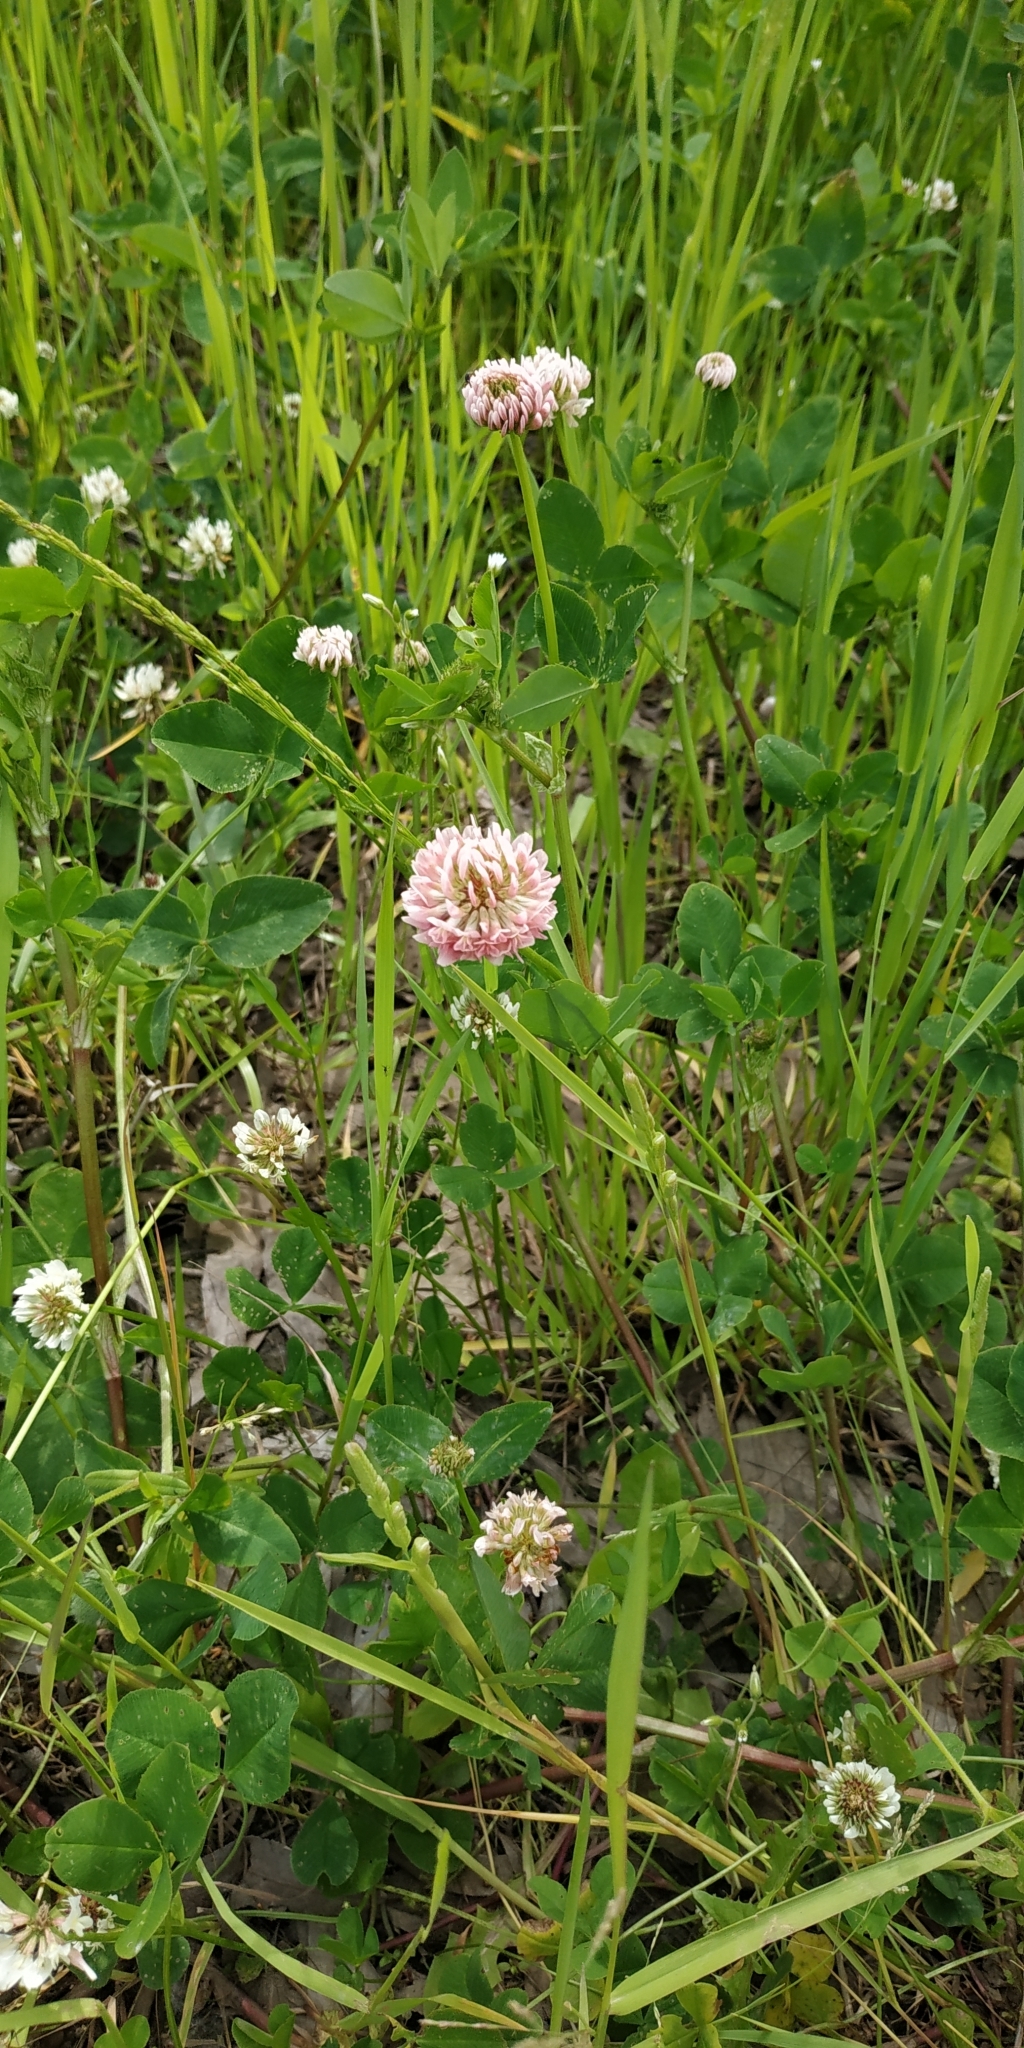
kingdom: Plantae
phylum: Tracheophyta
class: Magnoliopsida
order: Fabales
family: Fabaceae
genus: Trifolium
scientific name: Trifolium hybridum
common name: Alsike clover
